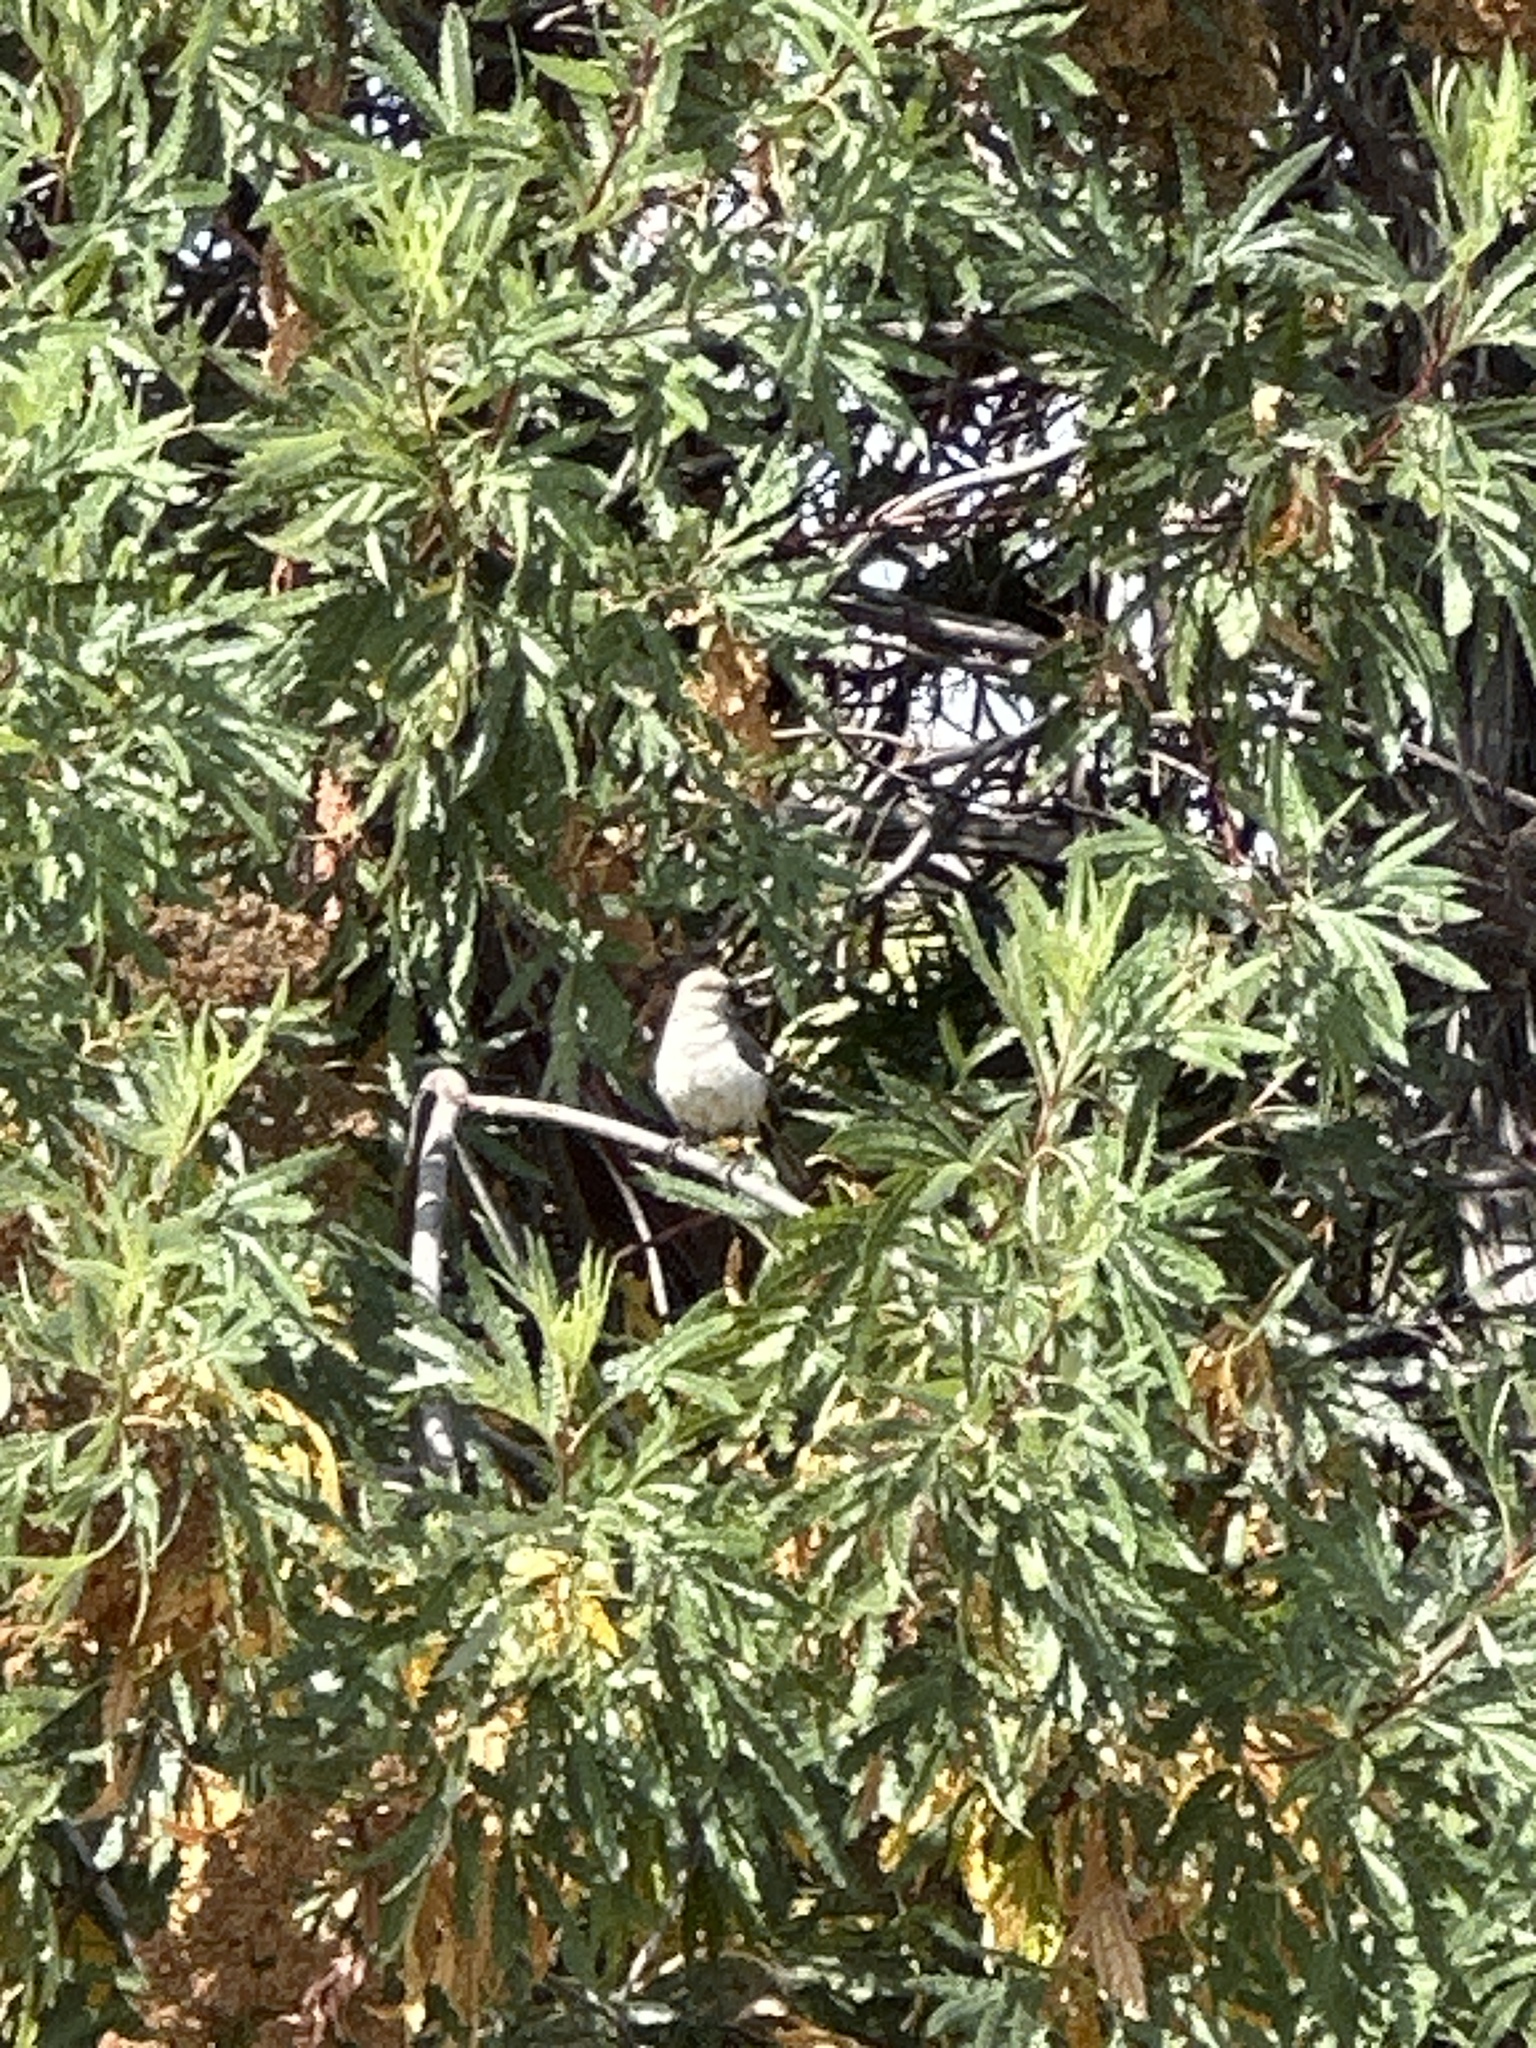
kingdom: Animalia
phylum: Chordata
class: Aves
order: Passeriformes
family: Mimidae
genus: Mimus
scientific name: Mimus polyglottos
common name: Northern mockingbird
